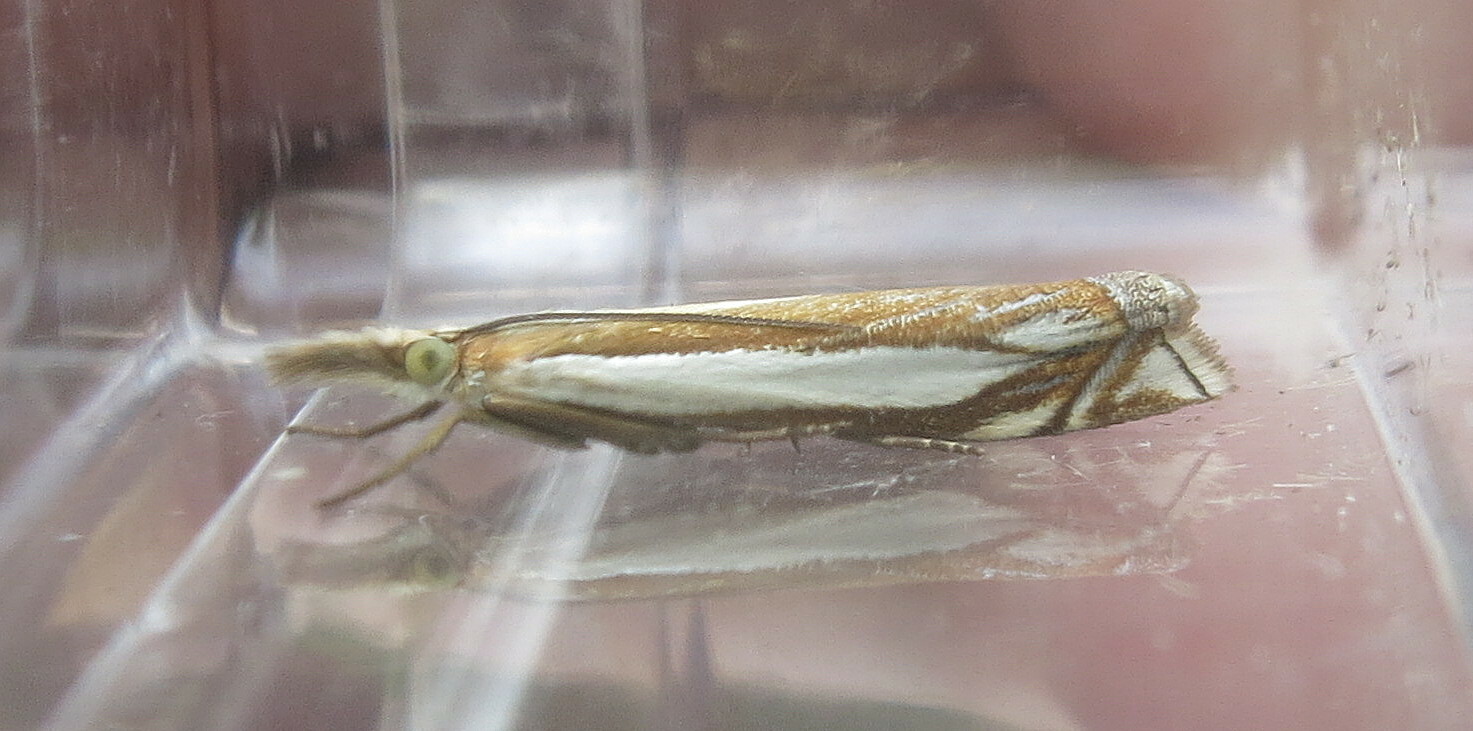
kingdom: Animalia
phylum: Arthropoda
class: Insecta
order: Lepidoptera
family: Crambidae
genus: Crambus
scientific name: Crambus pascuella
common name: Inlaid grass-veneer
